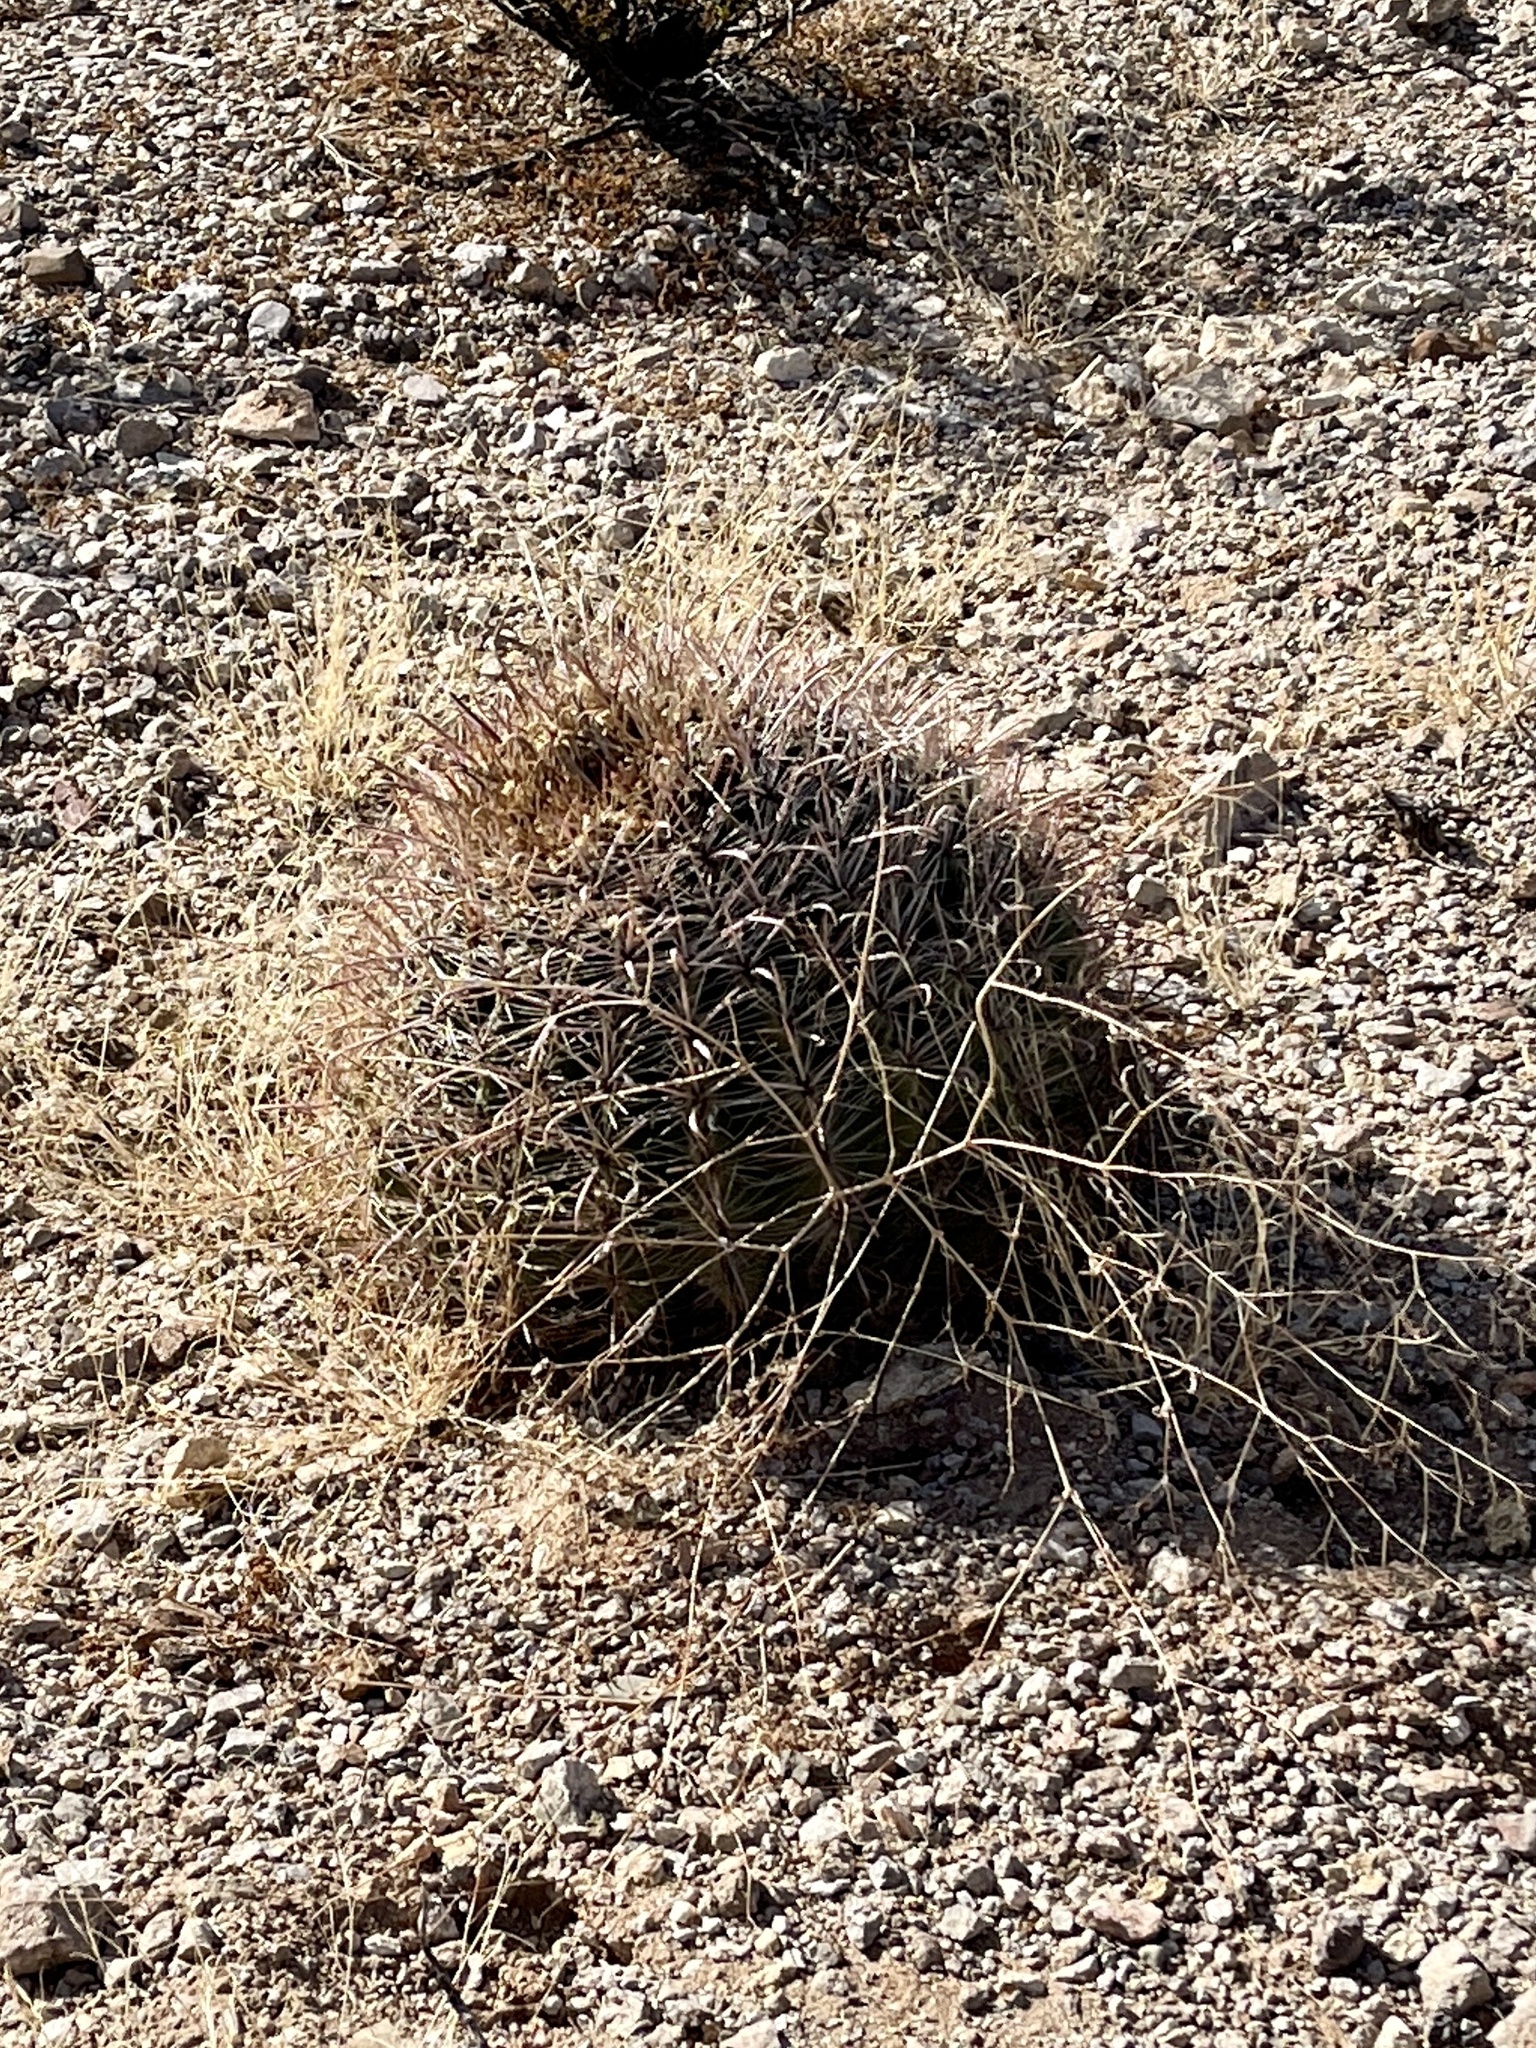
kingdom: Plantae
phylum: Tracheophyta
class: Magnoliopsida
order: Caryophyllales
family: Cactaceae
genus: Ferocactus
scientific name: Ferocactus wislizeni
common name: Candy barrel cactus
